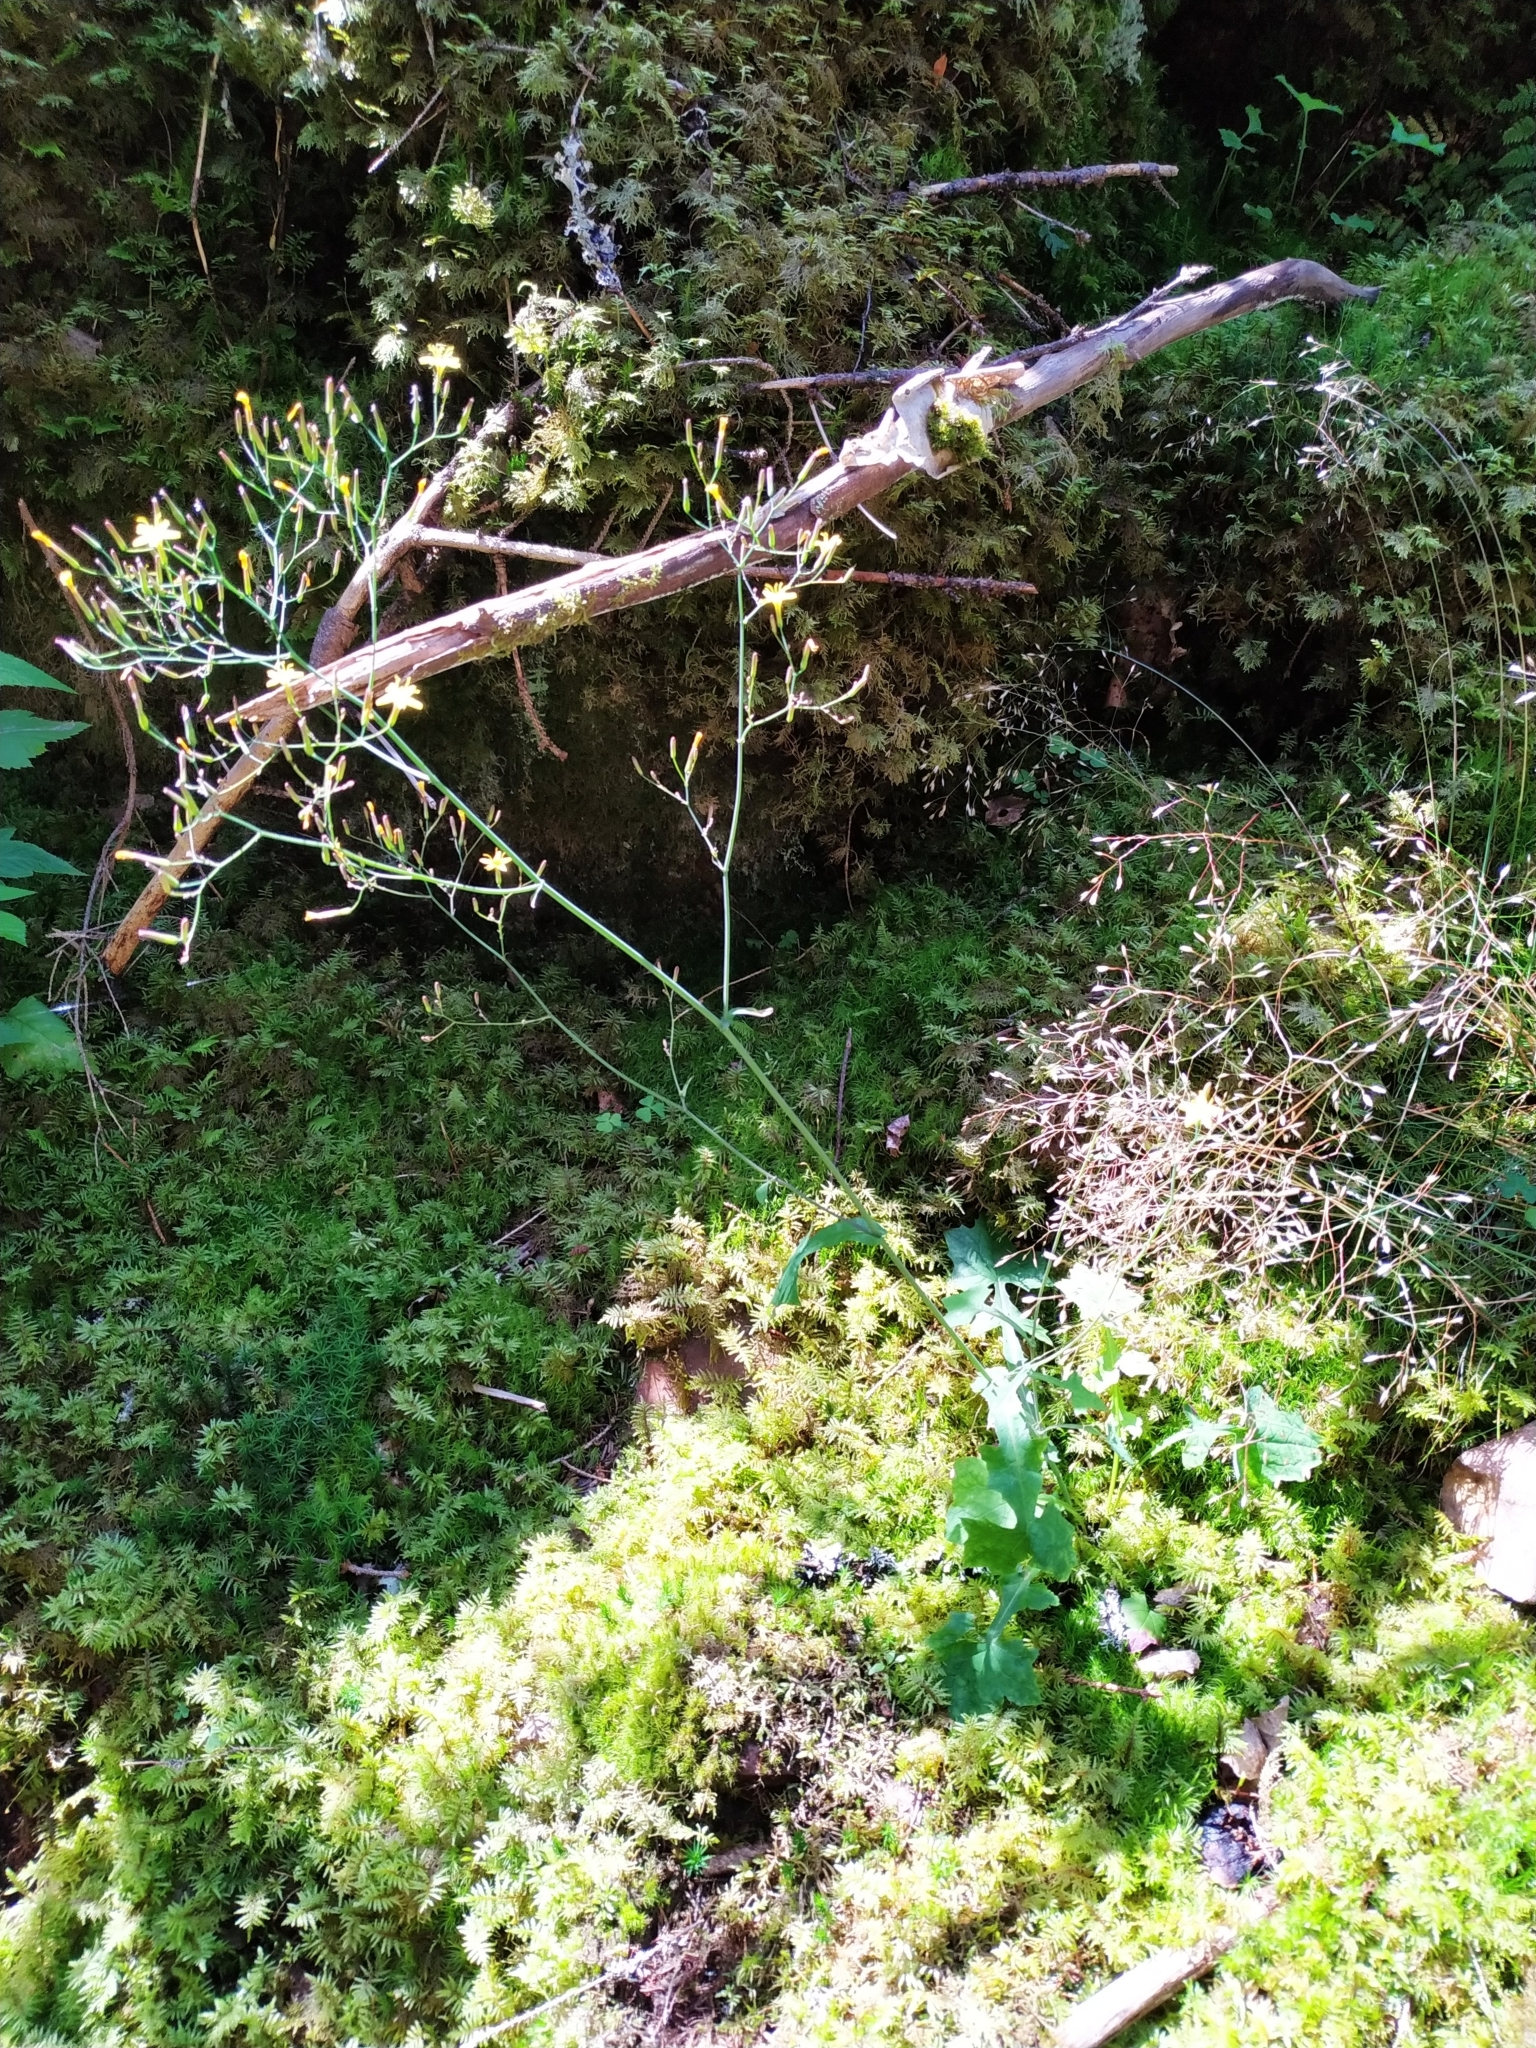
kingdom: Plantae
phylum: Tracheophyta
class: Magnoliopsida
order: Asterales
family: Asteraceae
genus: Mycelis
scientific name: Mycelis muralis
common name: Wall lettuce
